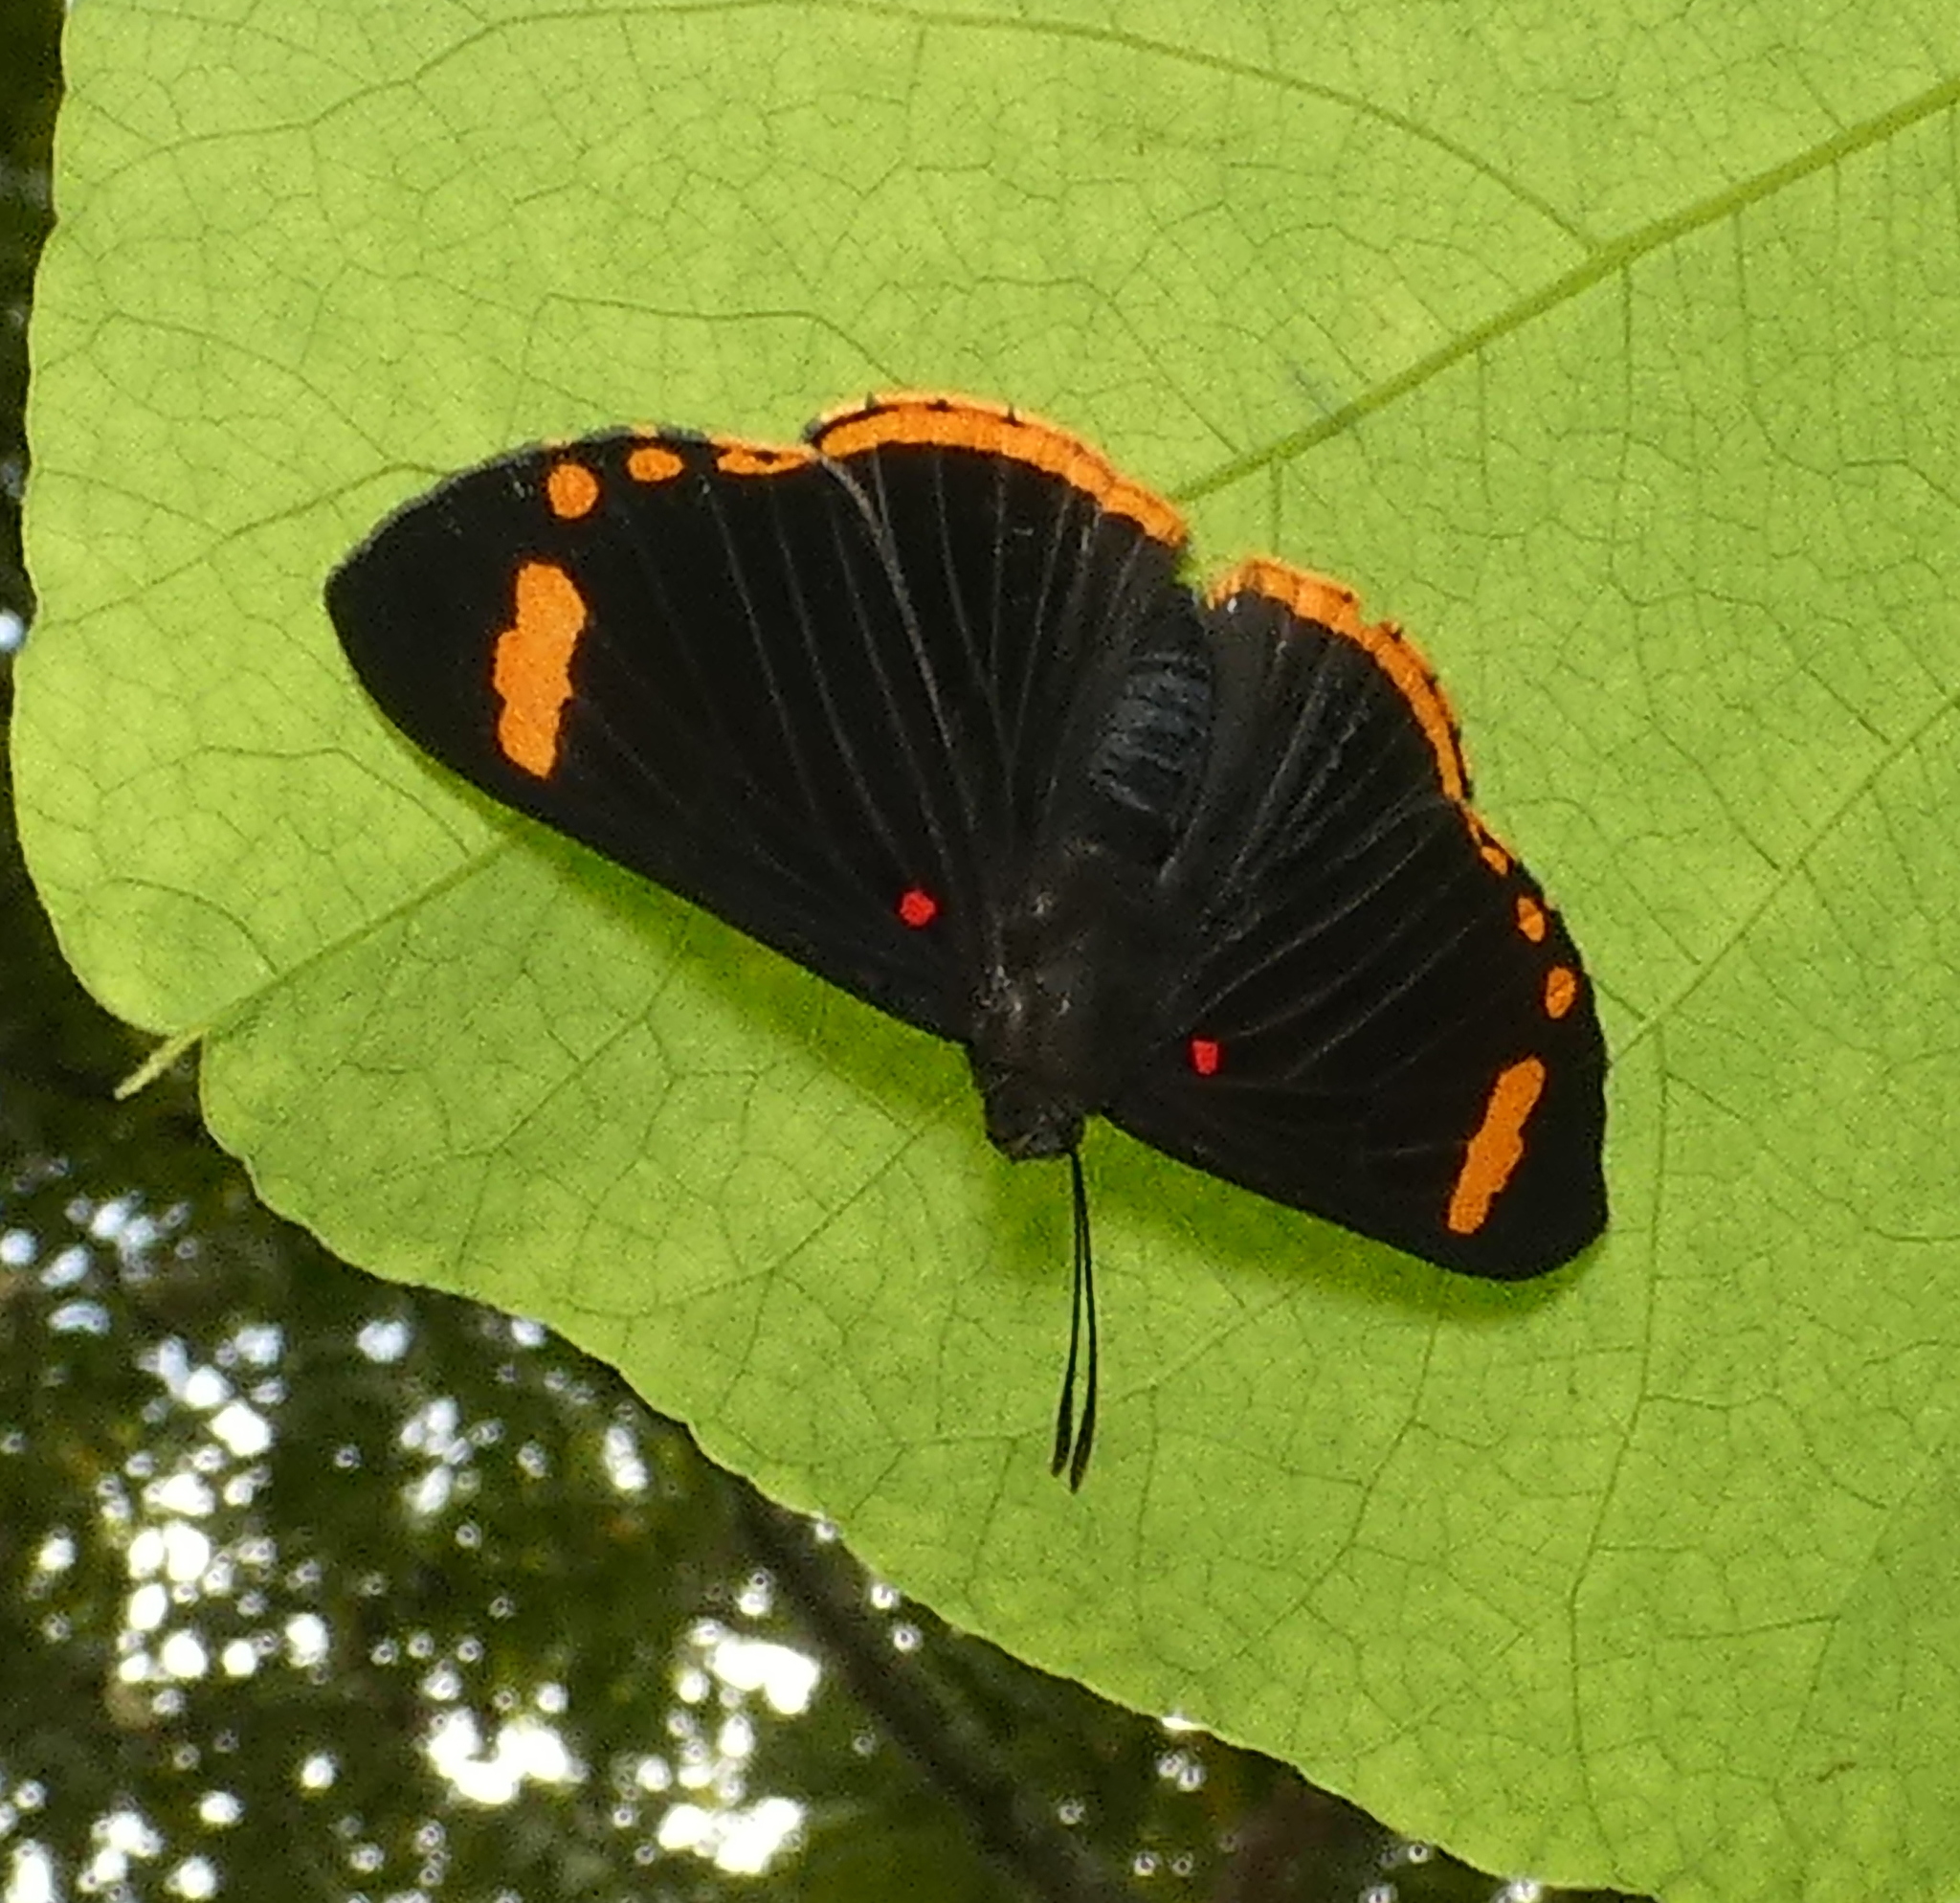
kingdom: Animalia
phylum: Arthropoda
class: Insecta
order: Lepidoptera
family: Lycaenidae
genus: Melanis
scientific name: Melanis xenia
